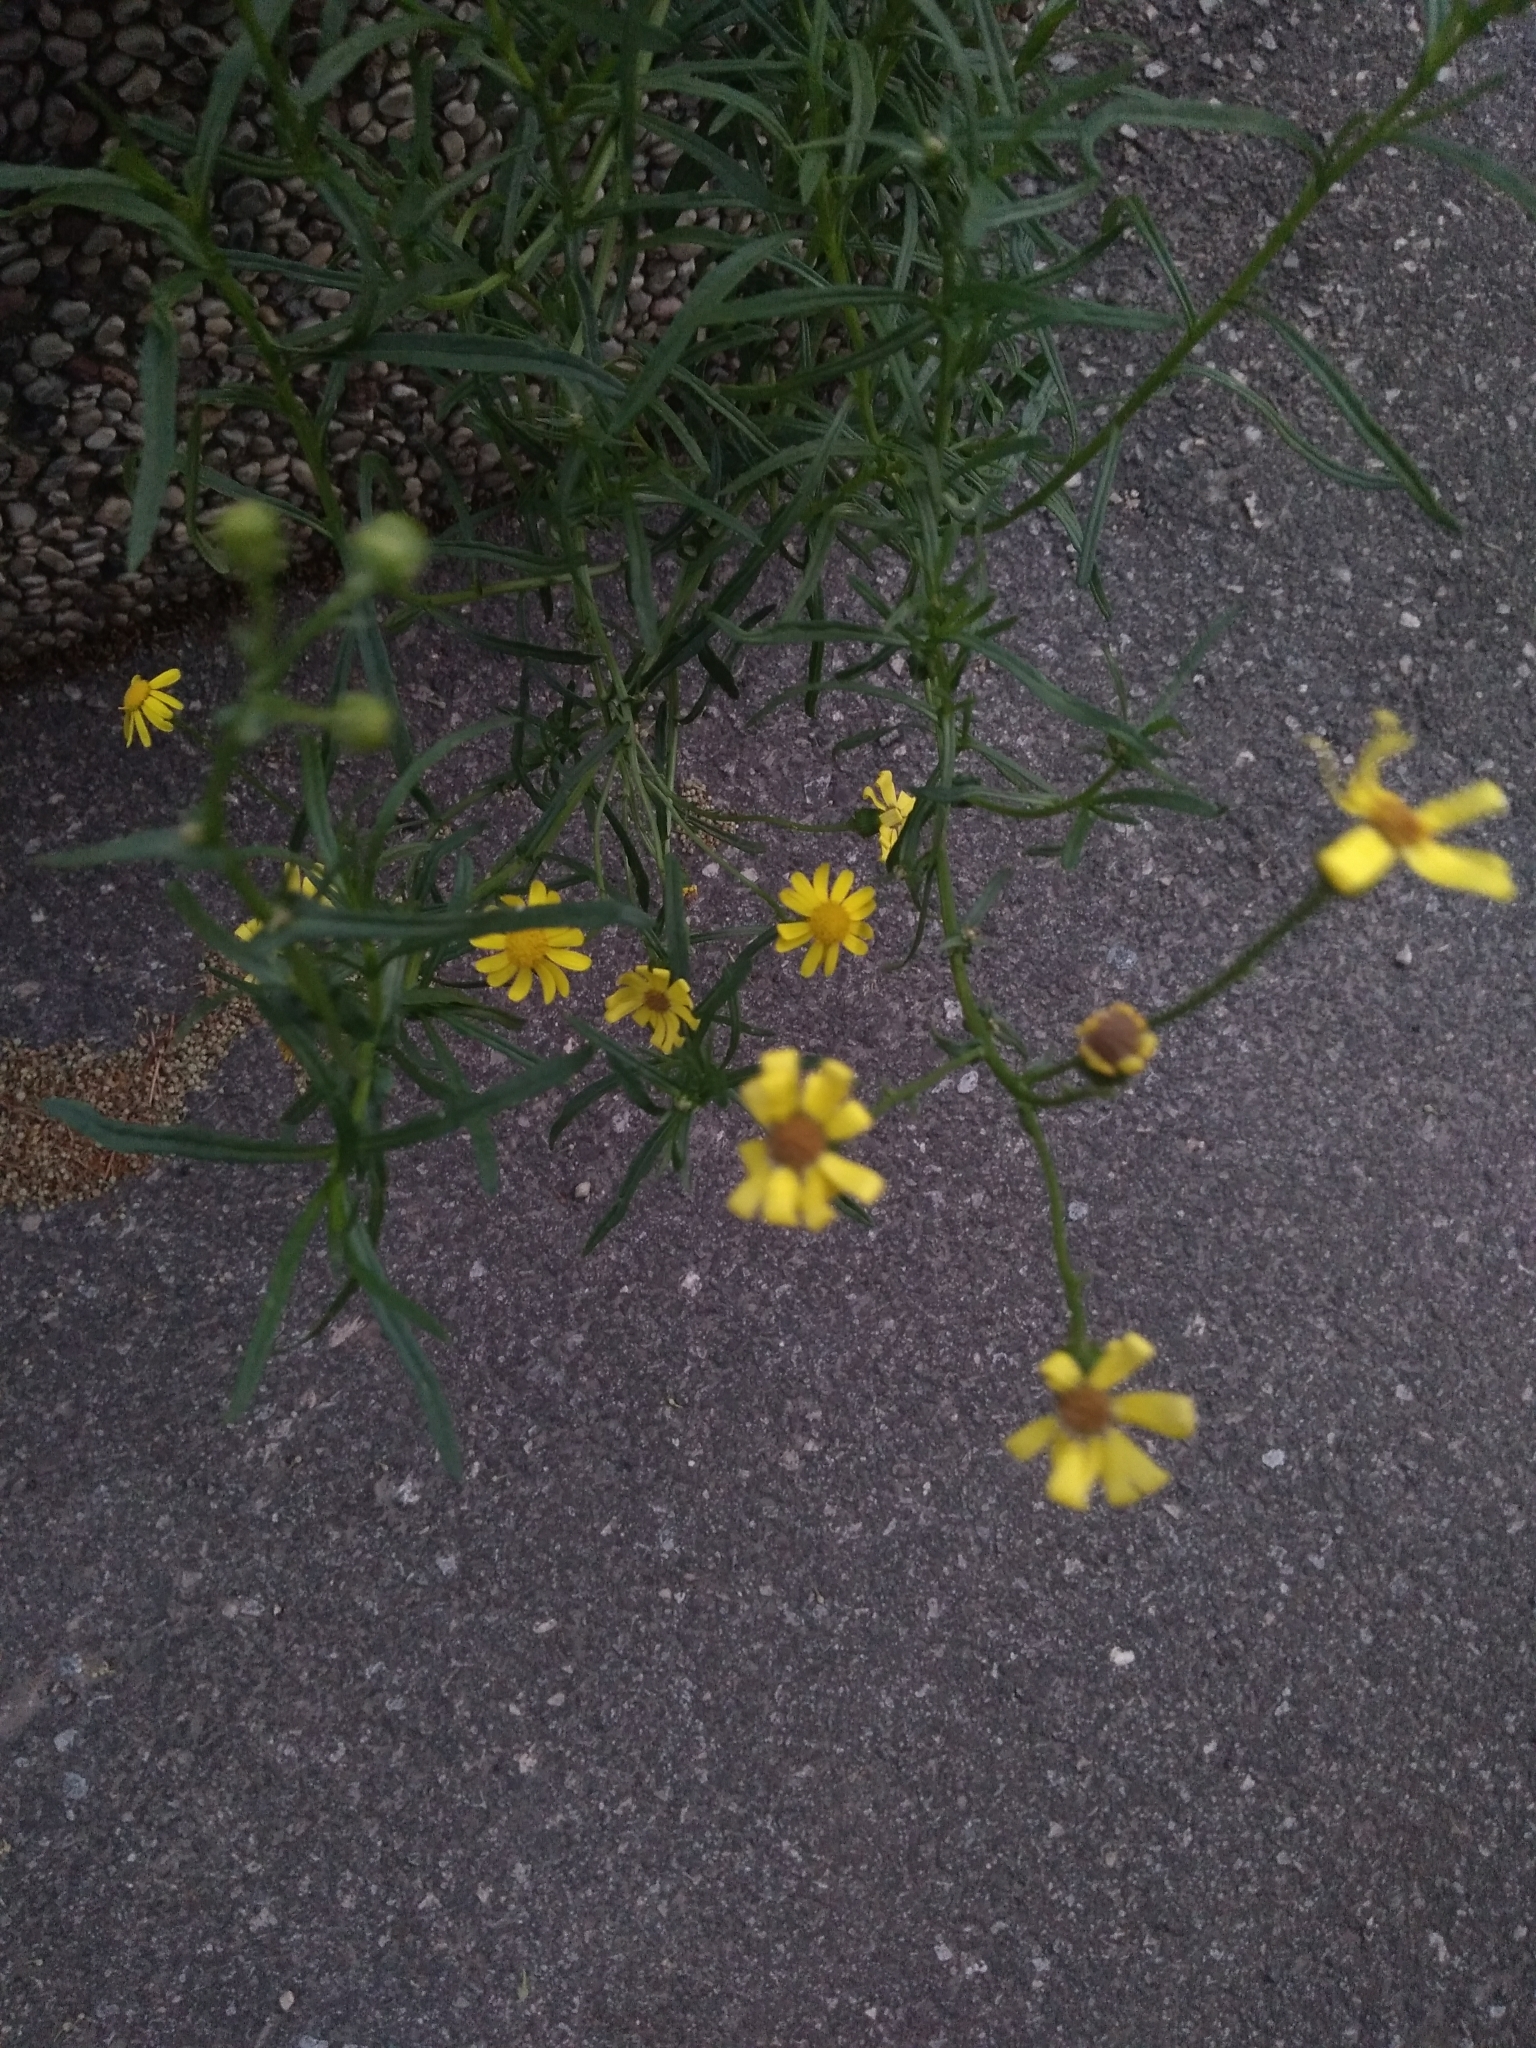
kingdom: Plantae
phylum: Tracheophyta
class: Magnoliopsida
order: Asterales
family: Asteraceae
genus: Senecio
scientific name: Senecio inaequidens
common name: Narrow-leaved ragwort
